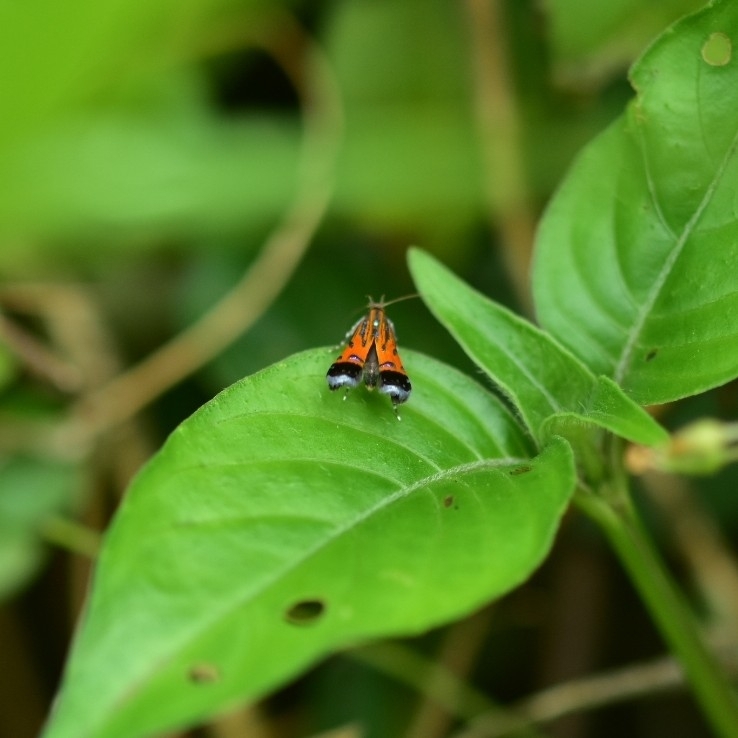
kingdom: Animalia
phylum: Arthropoda
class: Insecta
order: Lepidoptera
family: Gelechiidae
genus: Tricyanaula
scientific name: Tricyanaula aurantiaca
